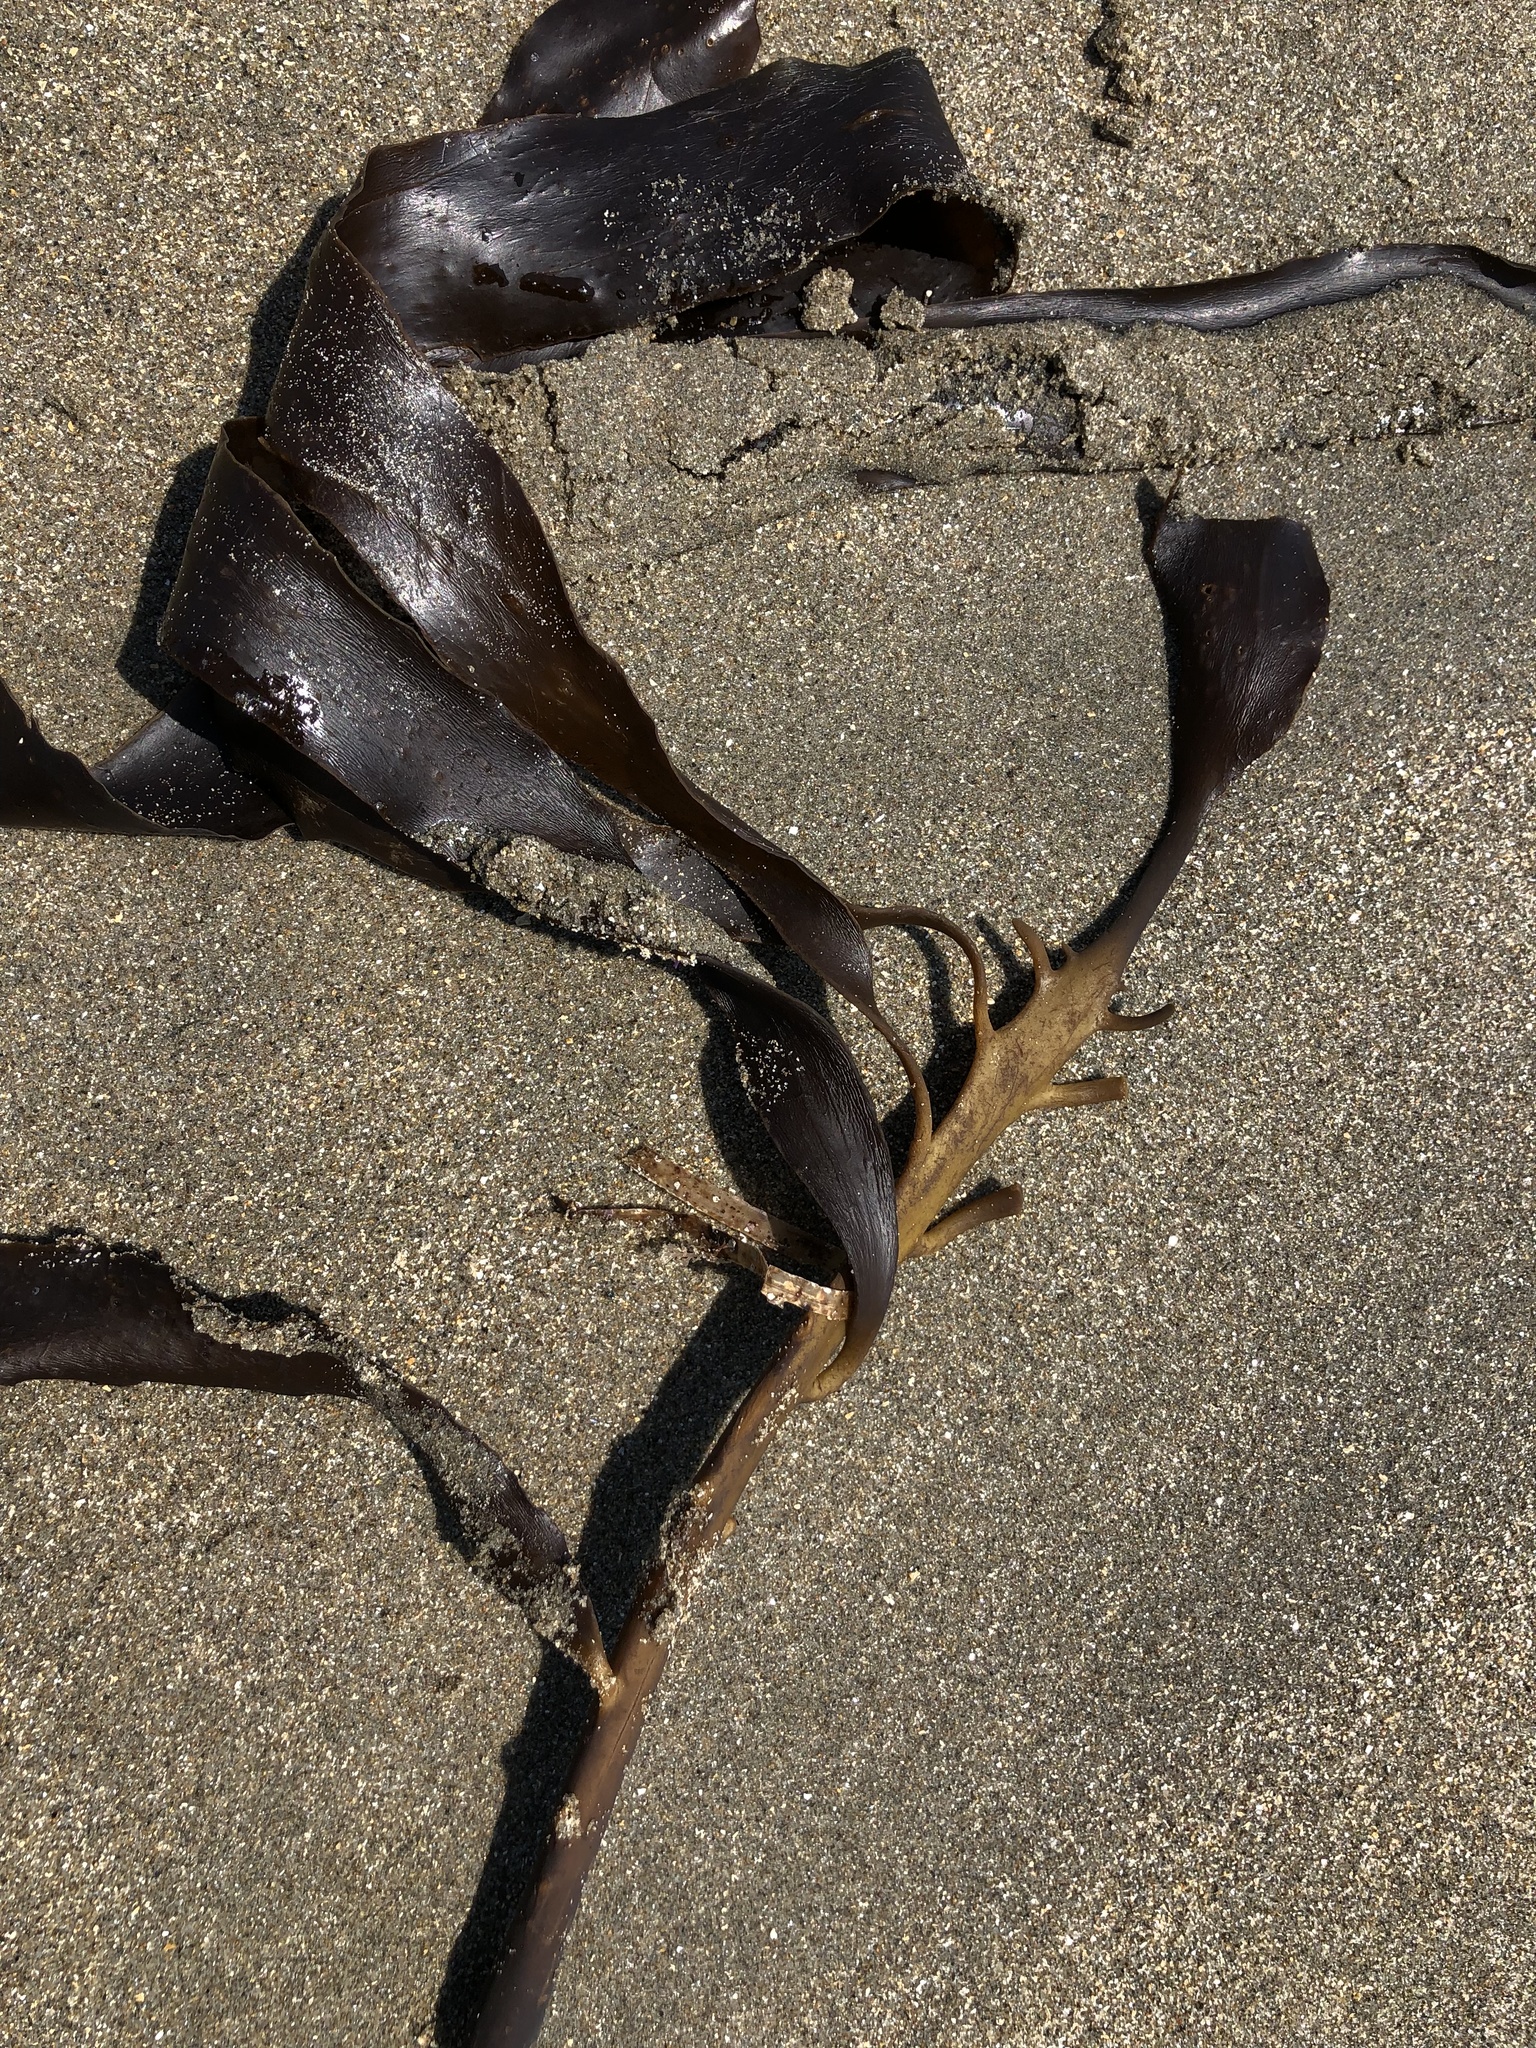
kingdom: Chromista
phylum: Ochrophyta
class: Phaeophyceae
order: Laminariales
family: Alariaceae
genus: Pterygophora
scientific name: Pterygophora californica
